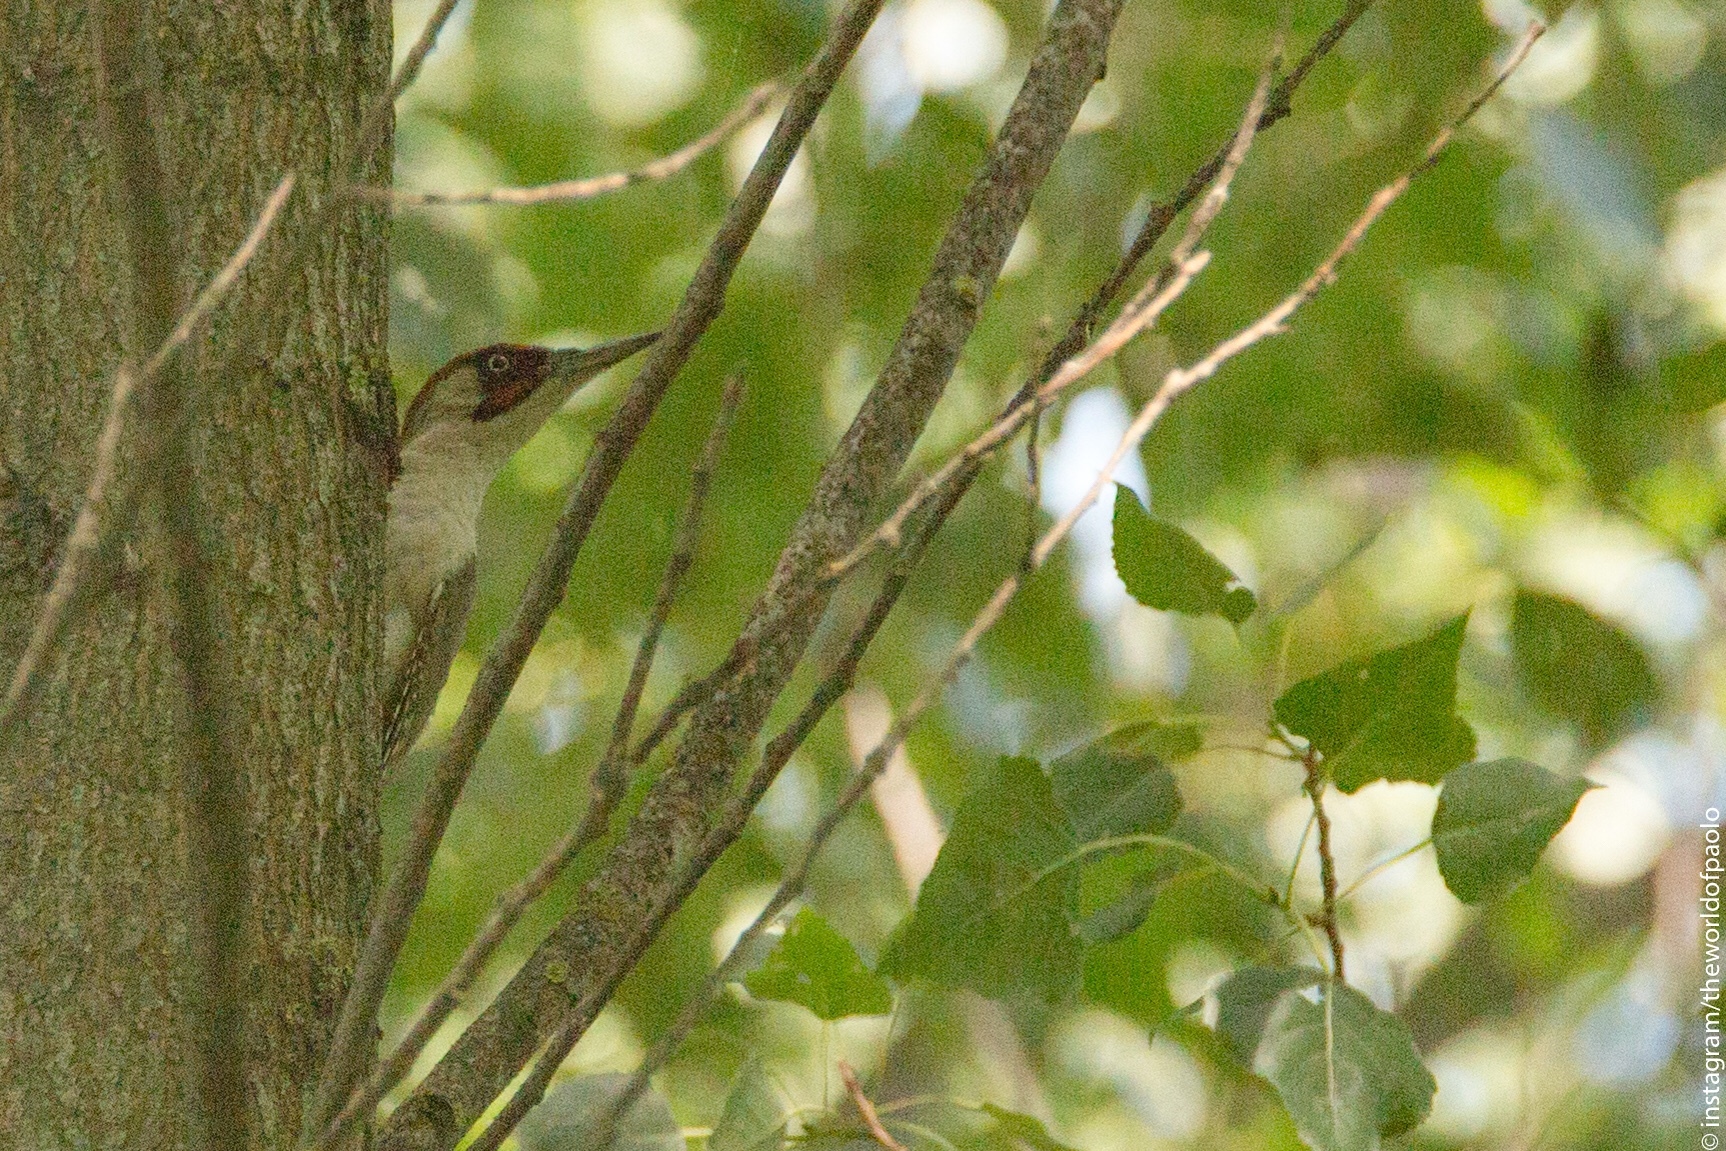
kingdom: Animalia
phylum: Chordata
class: Aves
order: Piciformes
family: Picidae
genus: Picus
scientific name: Picus viridis
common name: European green woodpecker
